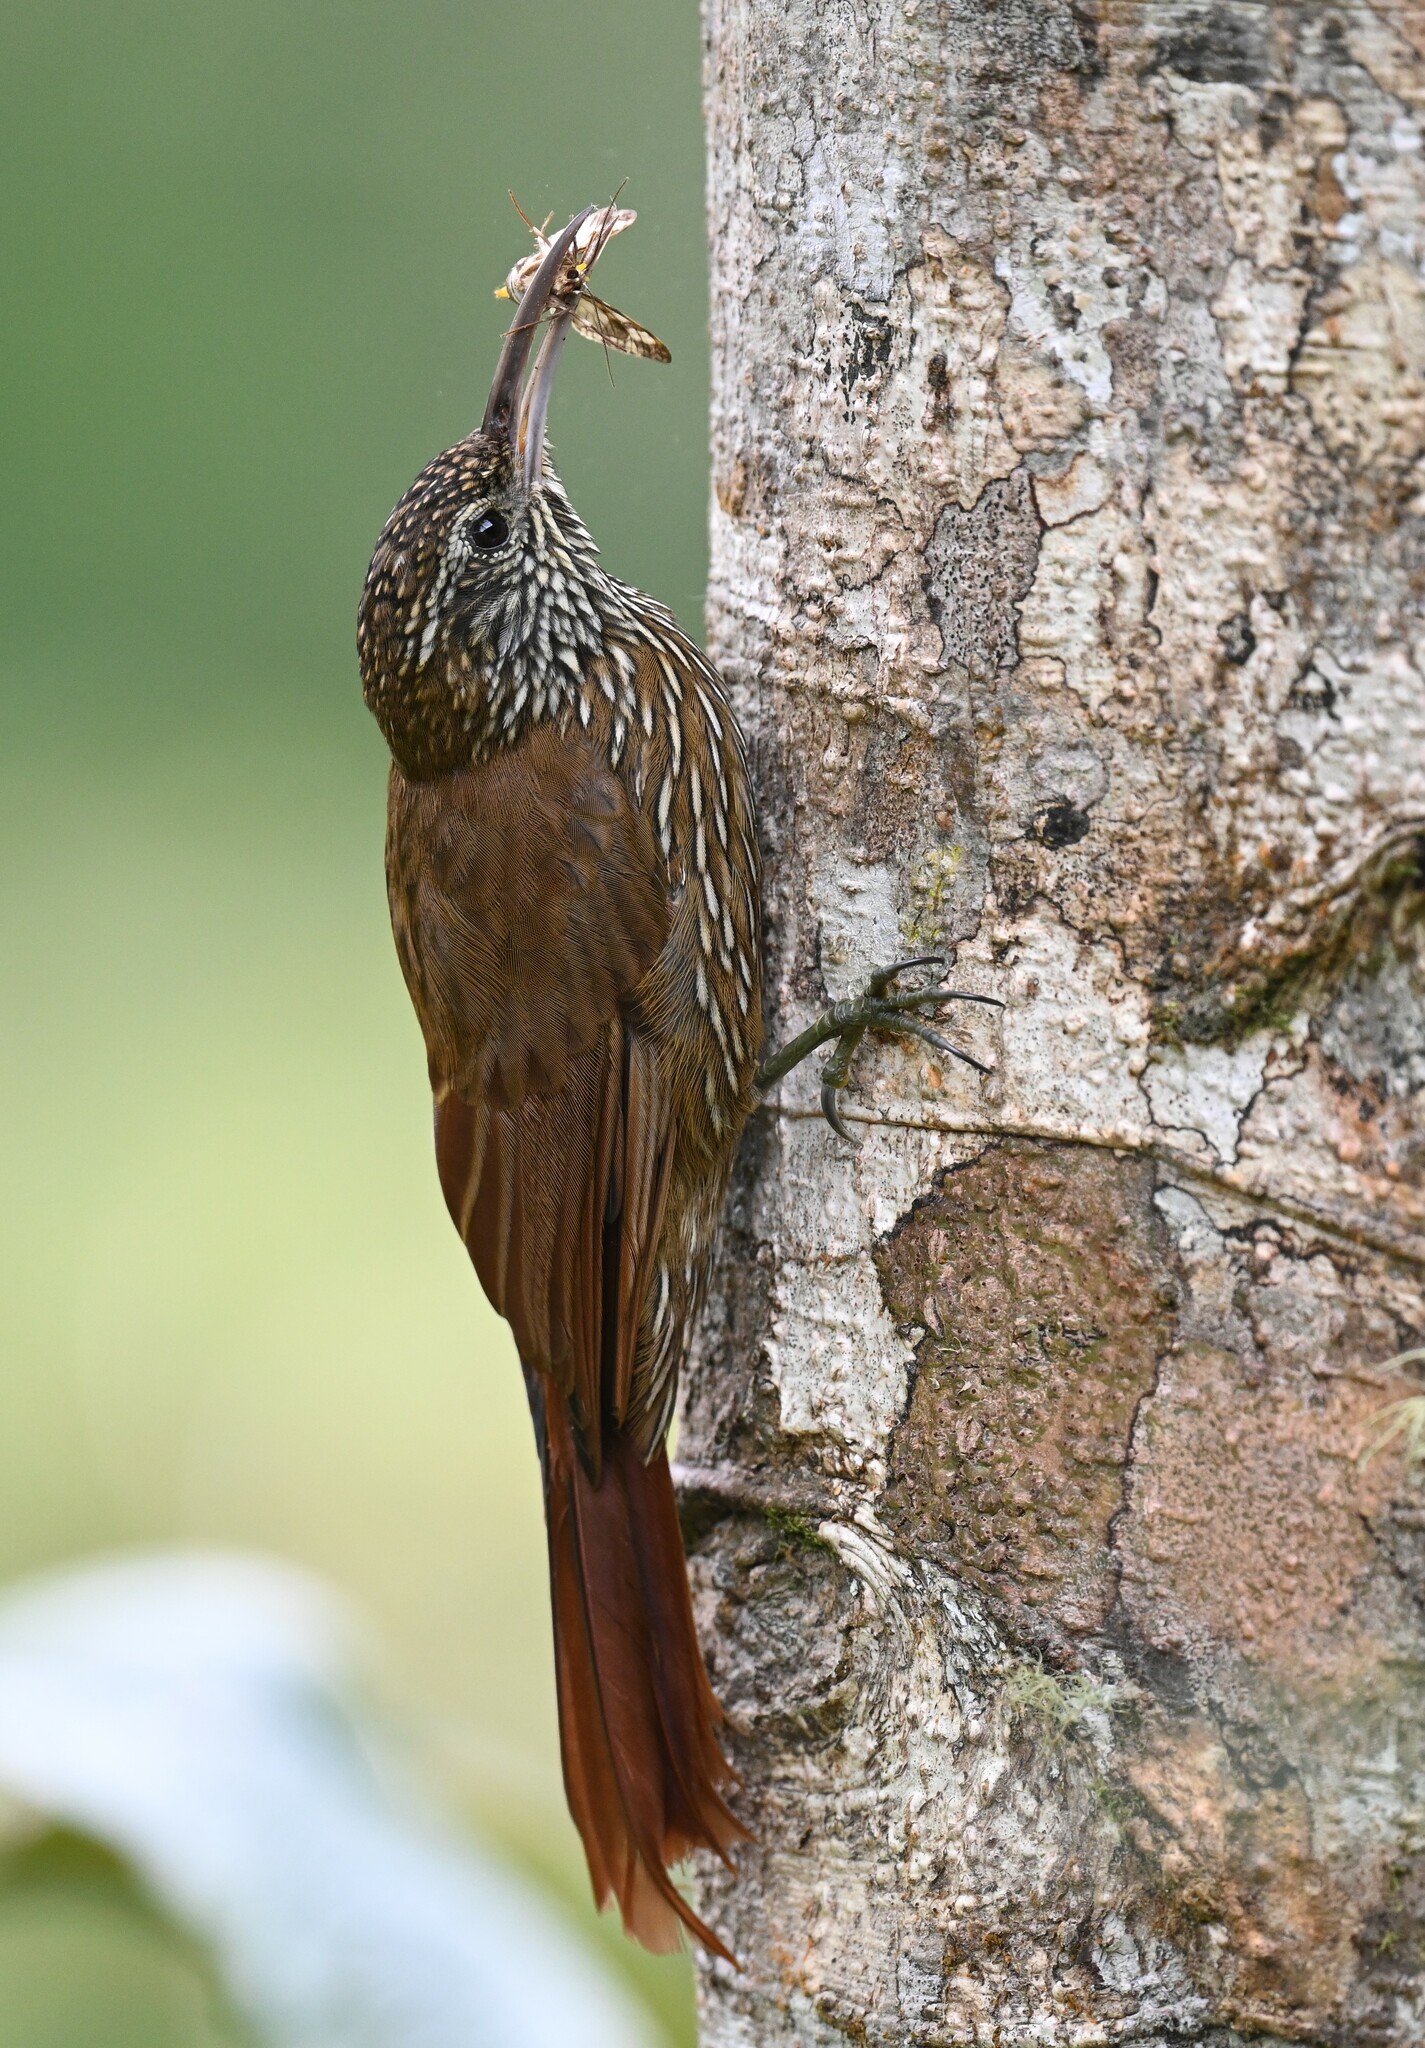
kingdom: Animalia
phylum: Chordata
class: Aves
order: Passeriformes
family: Furnariidae
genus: Lepidocolaptes
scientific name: Lepidocolaptes lacrymiger
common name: Montane woodcreeper
